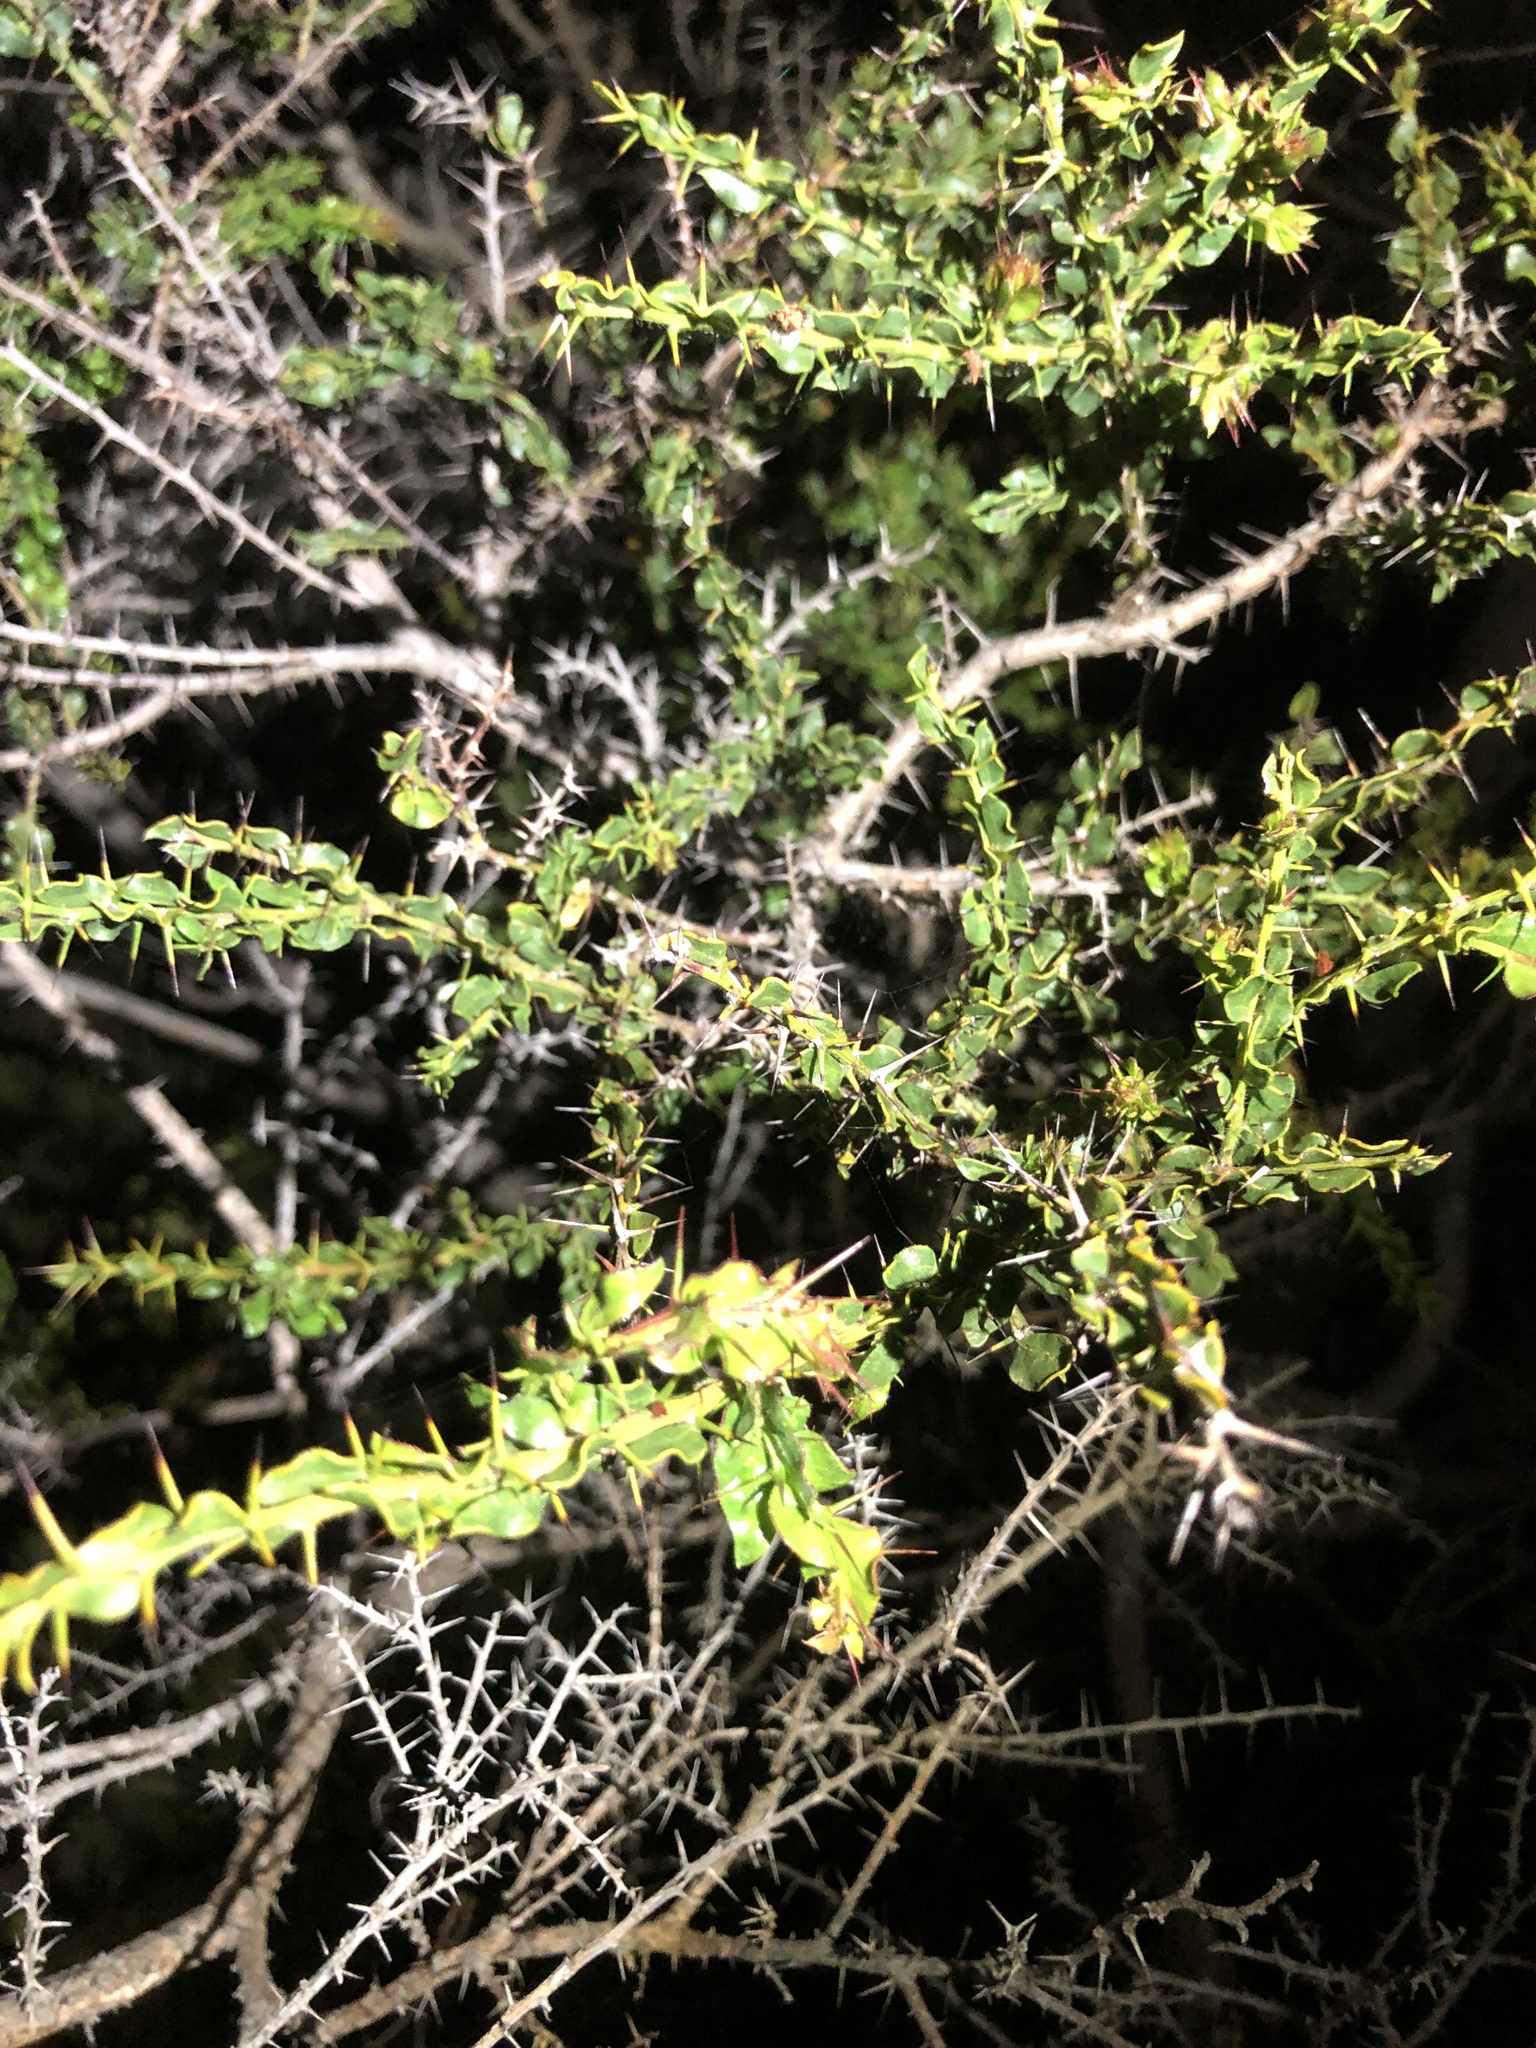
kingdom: Plantae
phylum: Tracheophyta
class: Magnoliopsida
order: Fabales
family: Fabaceae
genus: Acacia
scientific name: Acacia paradoxa
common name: Paradox acacia
